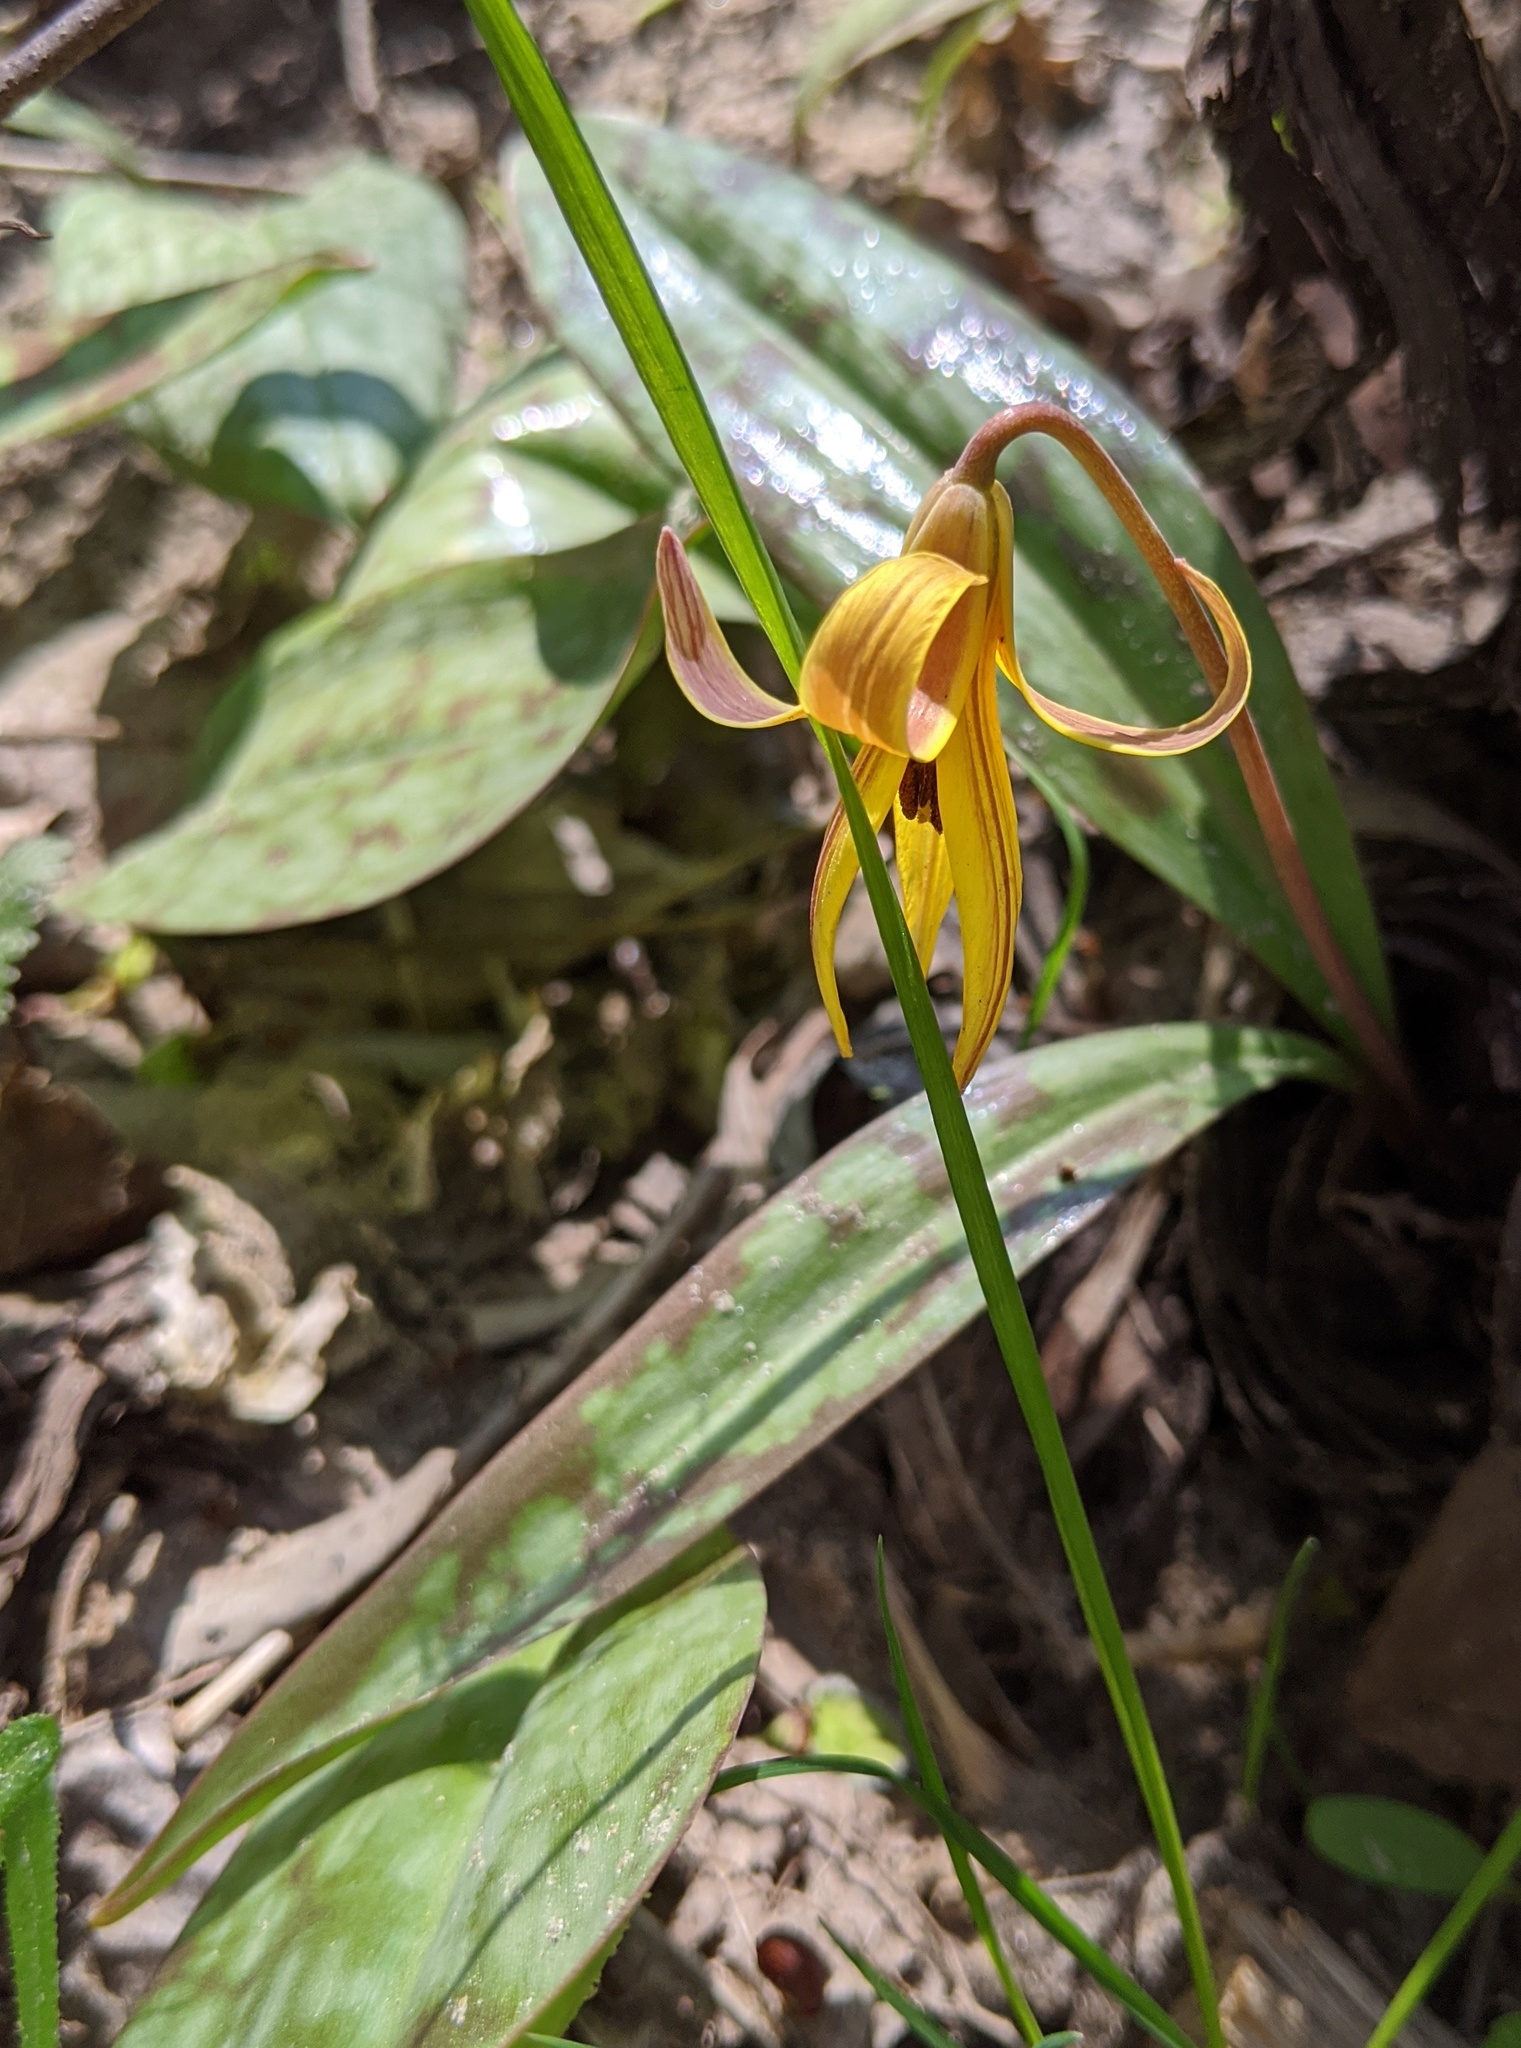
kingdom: Plantae
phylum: Tracheophyta
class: Liliopsida
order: Liliales
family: Liliaceae
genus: Erythronium
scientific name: Erythronium americanum
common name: Yellow adder's-tongue
